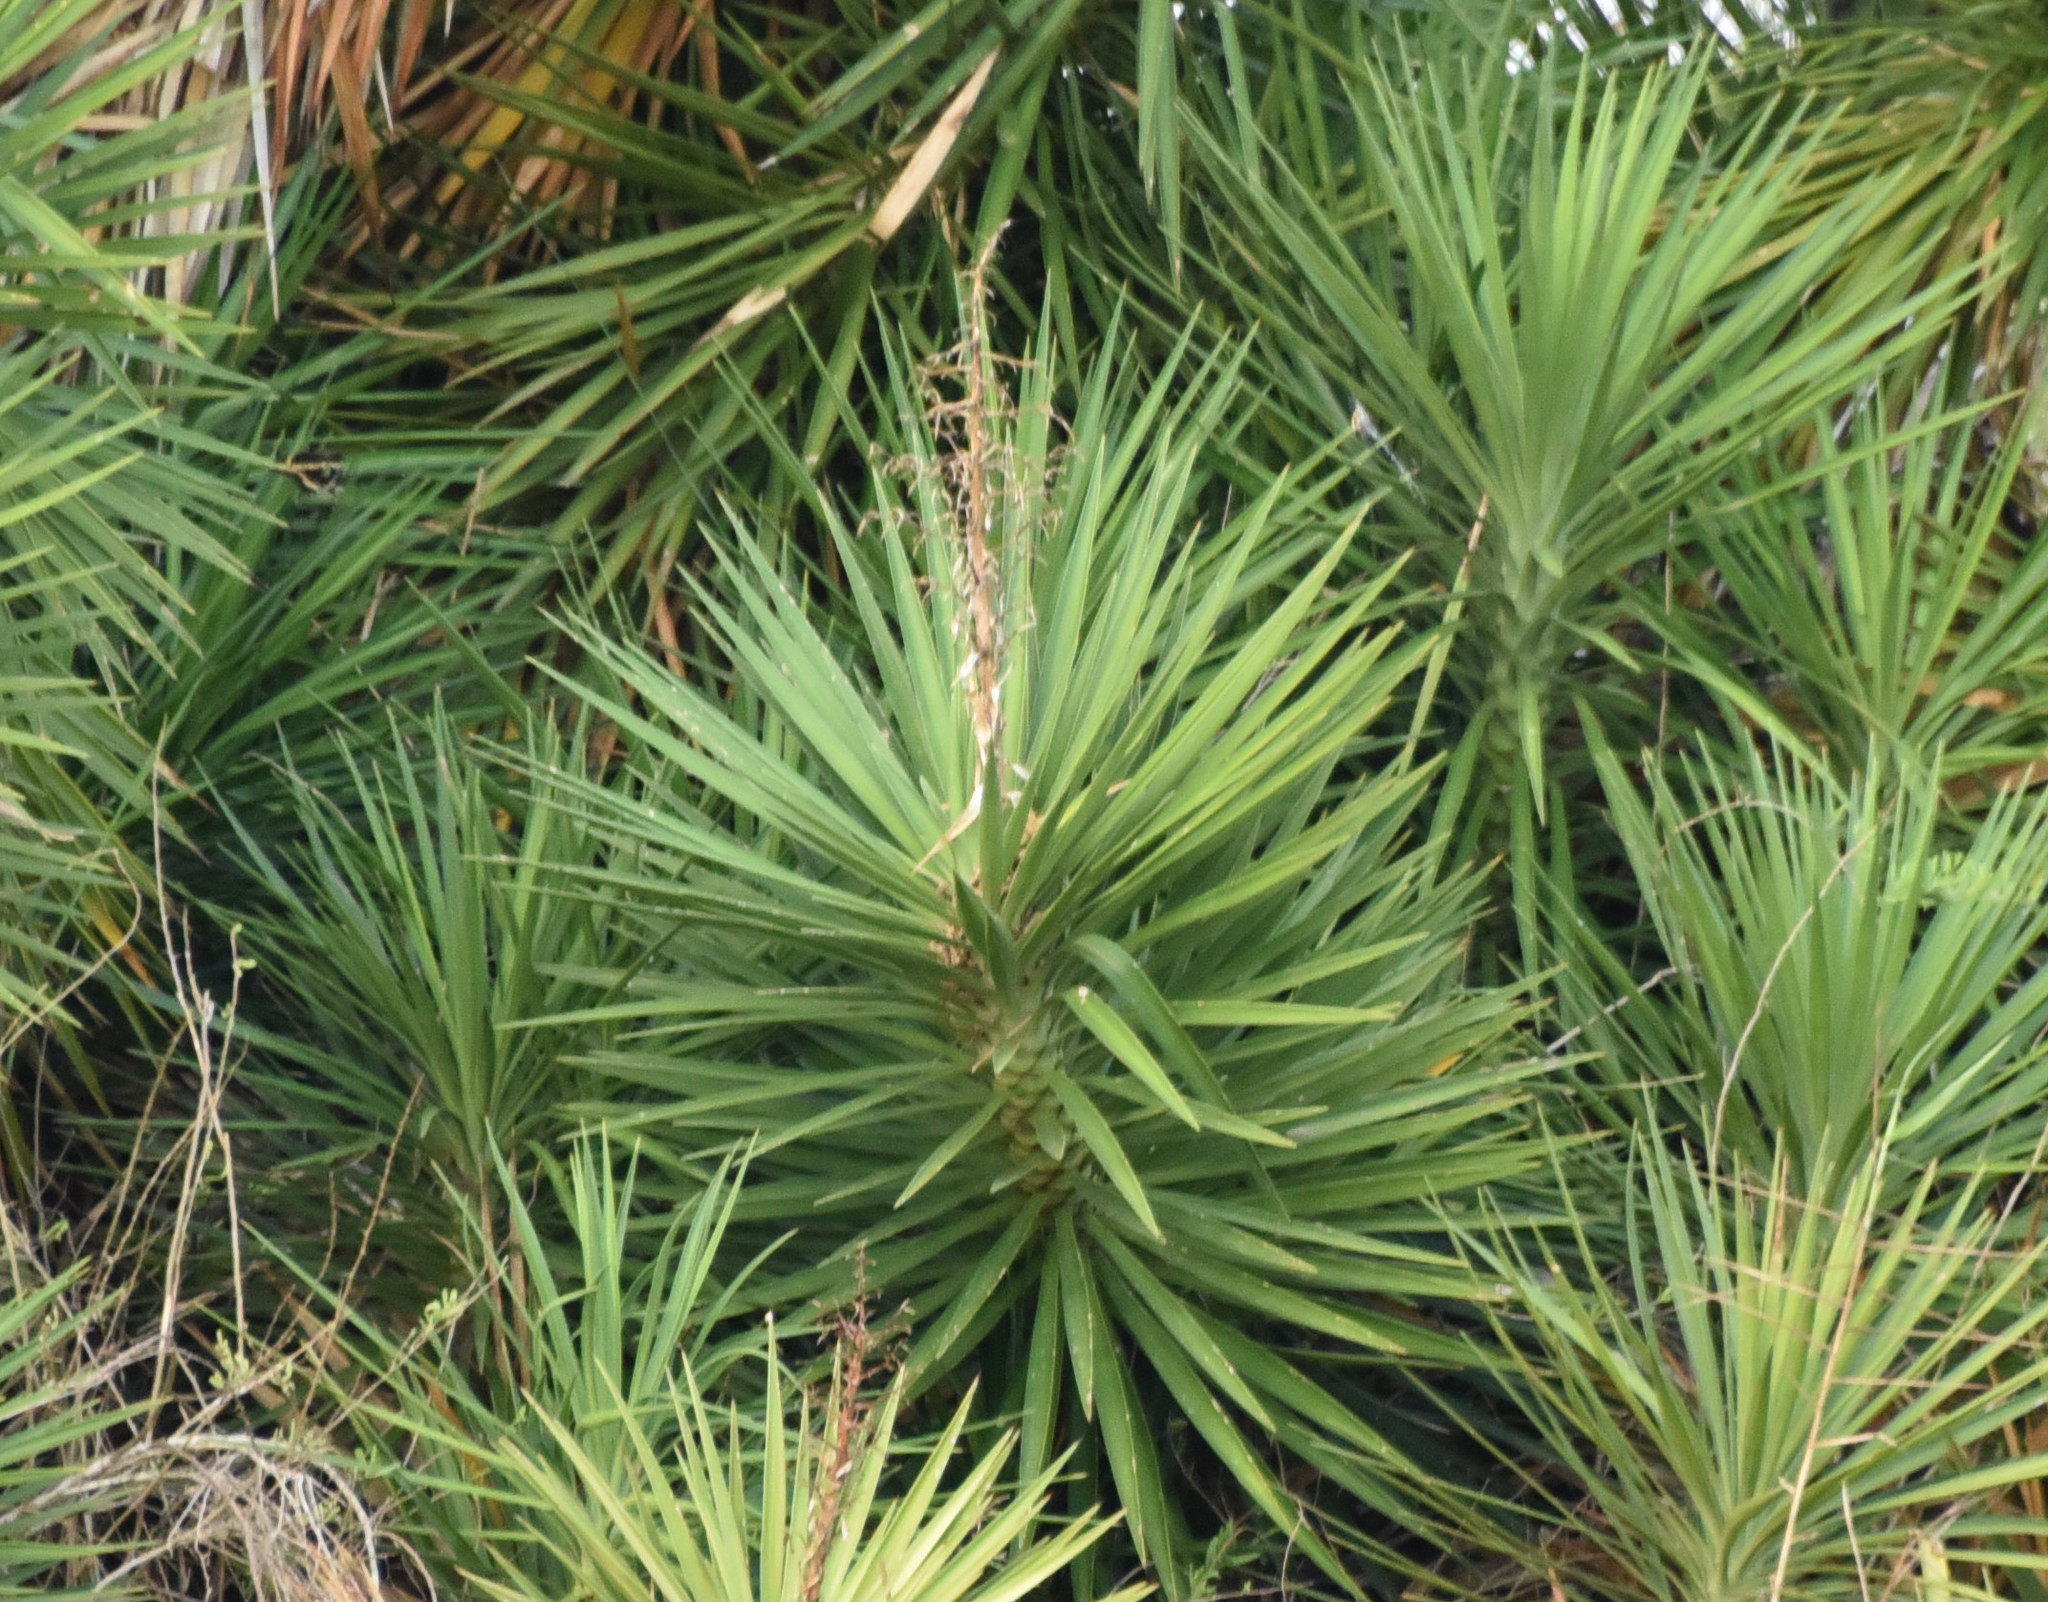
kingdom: Plantae
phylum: Tracheophyta
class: Liliopsida
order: Asparagales
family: Asparagaceae
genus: Yucca
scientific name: Yucca aloifolia
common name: Aloe yucca
